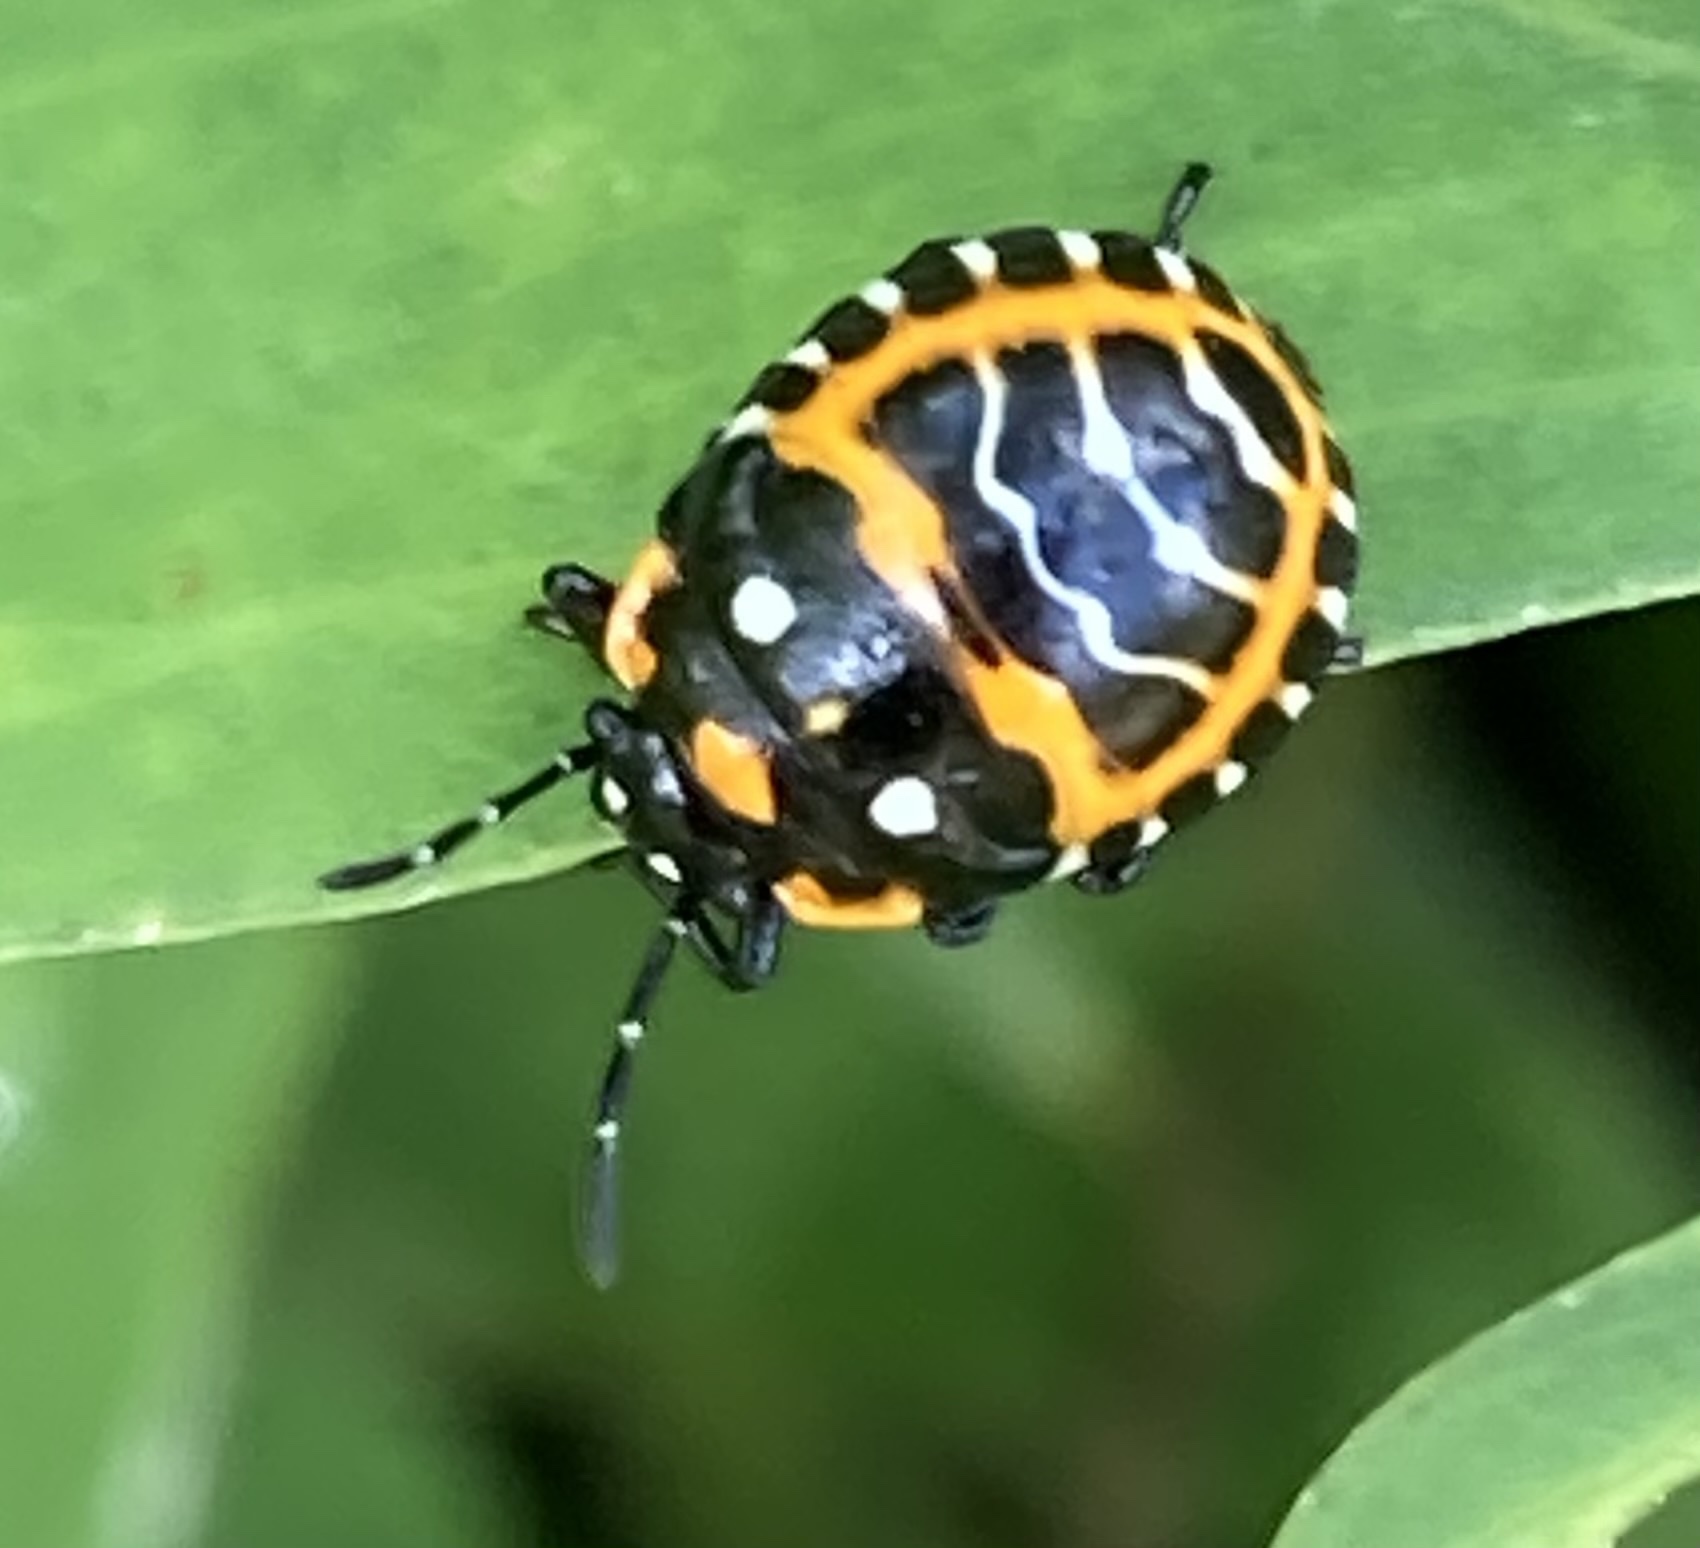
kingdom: Animalia
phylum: Arthropoda
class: Insecta
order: Hemiptera
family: Pentatomidae
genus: Murgantia
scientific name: Murgantia histrionica
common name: Harlequin bug
